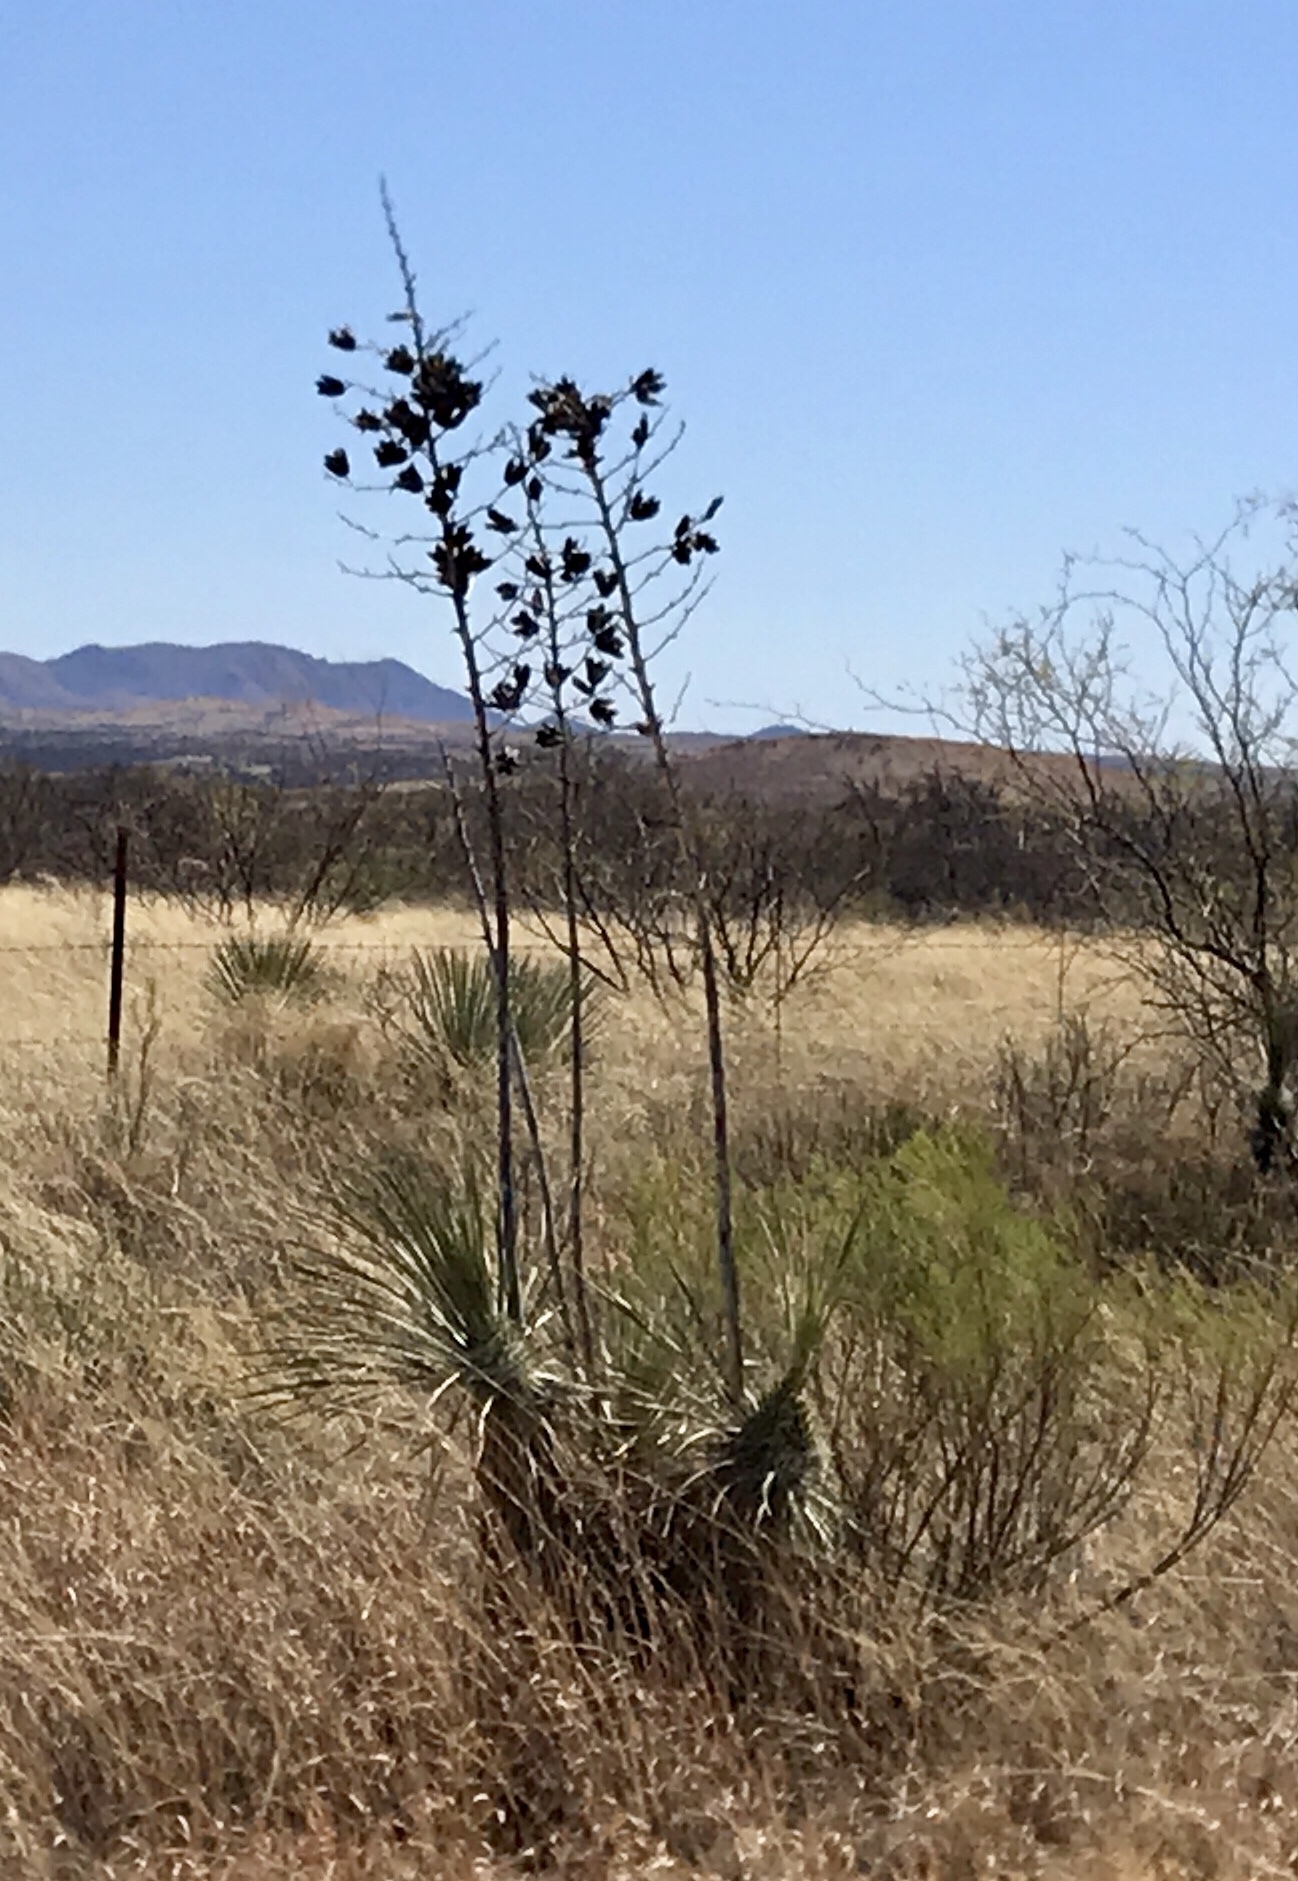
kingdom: Plantae
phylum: Tracheophyta
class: Liliopsida
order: Asparagales
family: Asparagaceae
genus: Yucca
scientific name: Yucca elata
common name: Palmella
